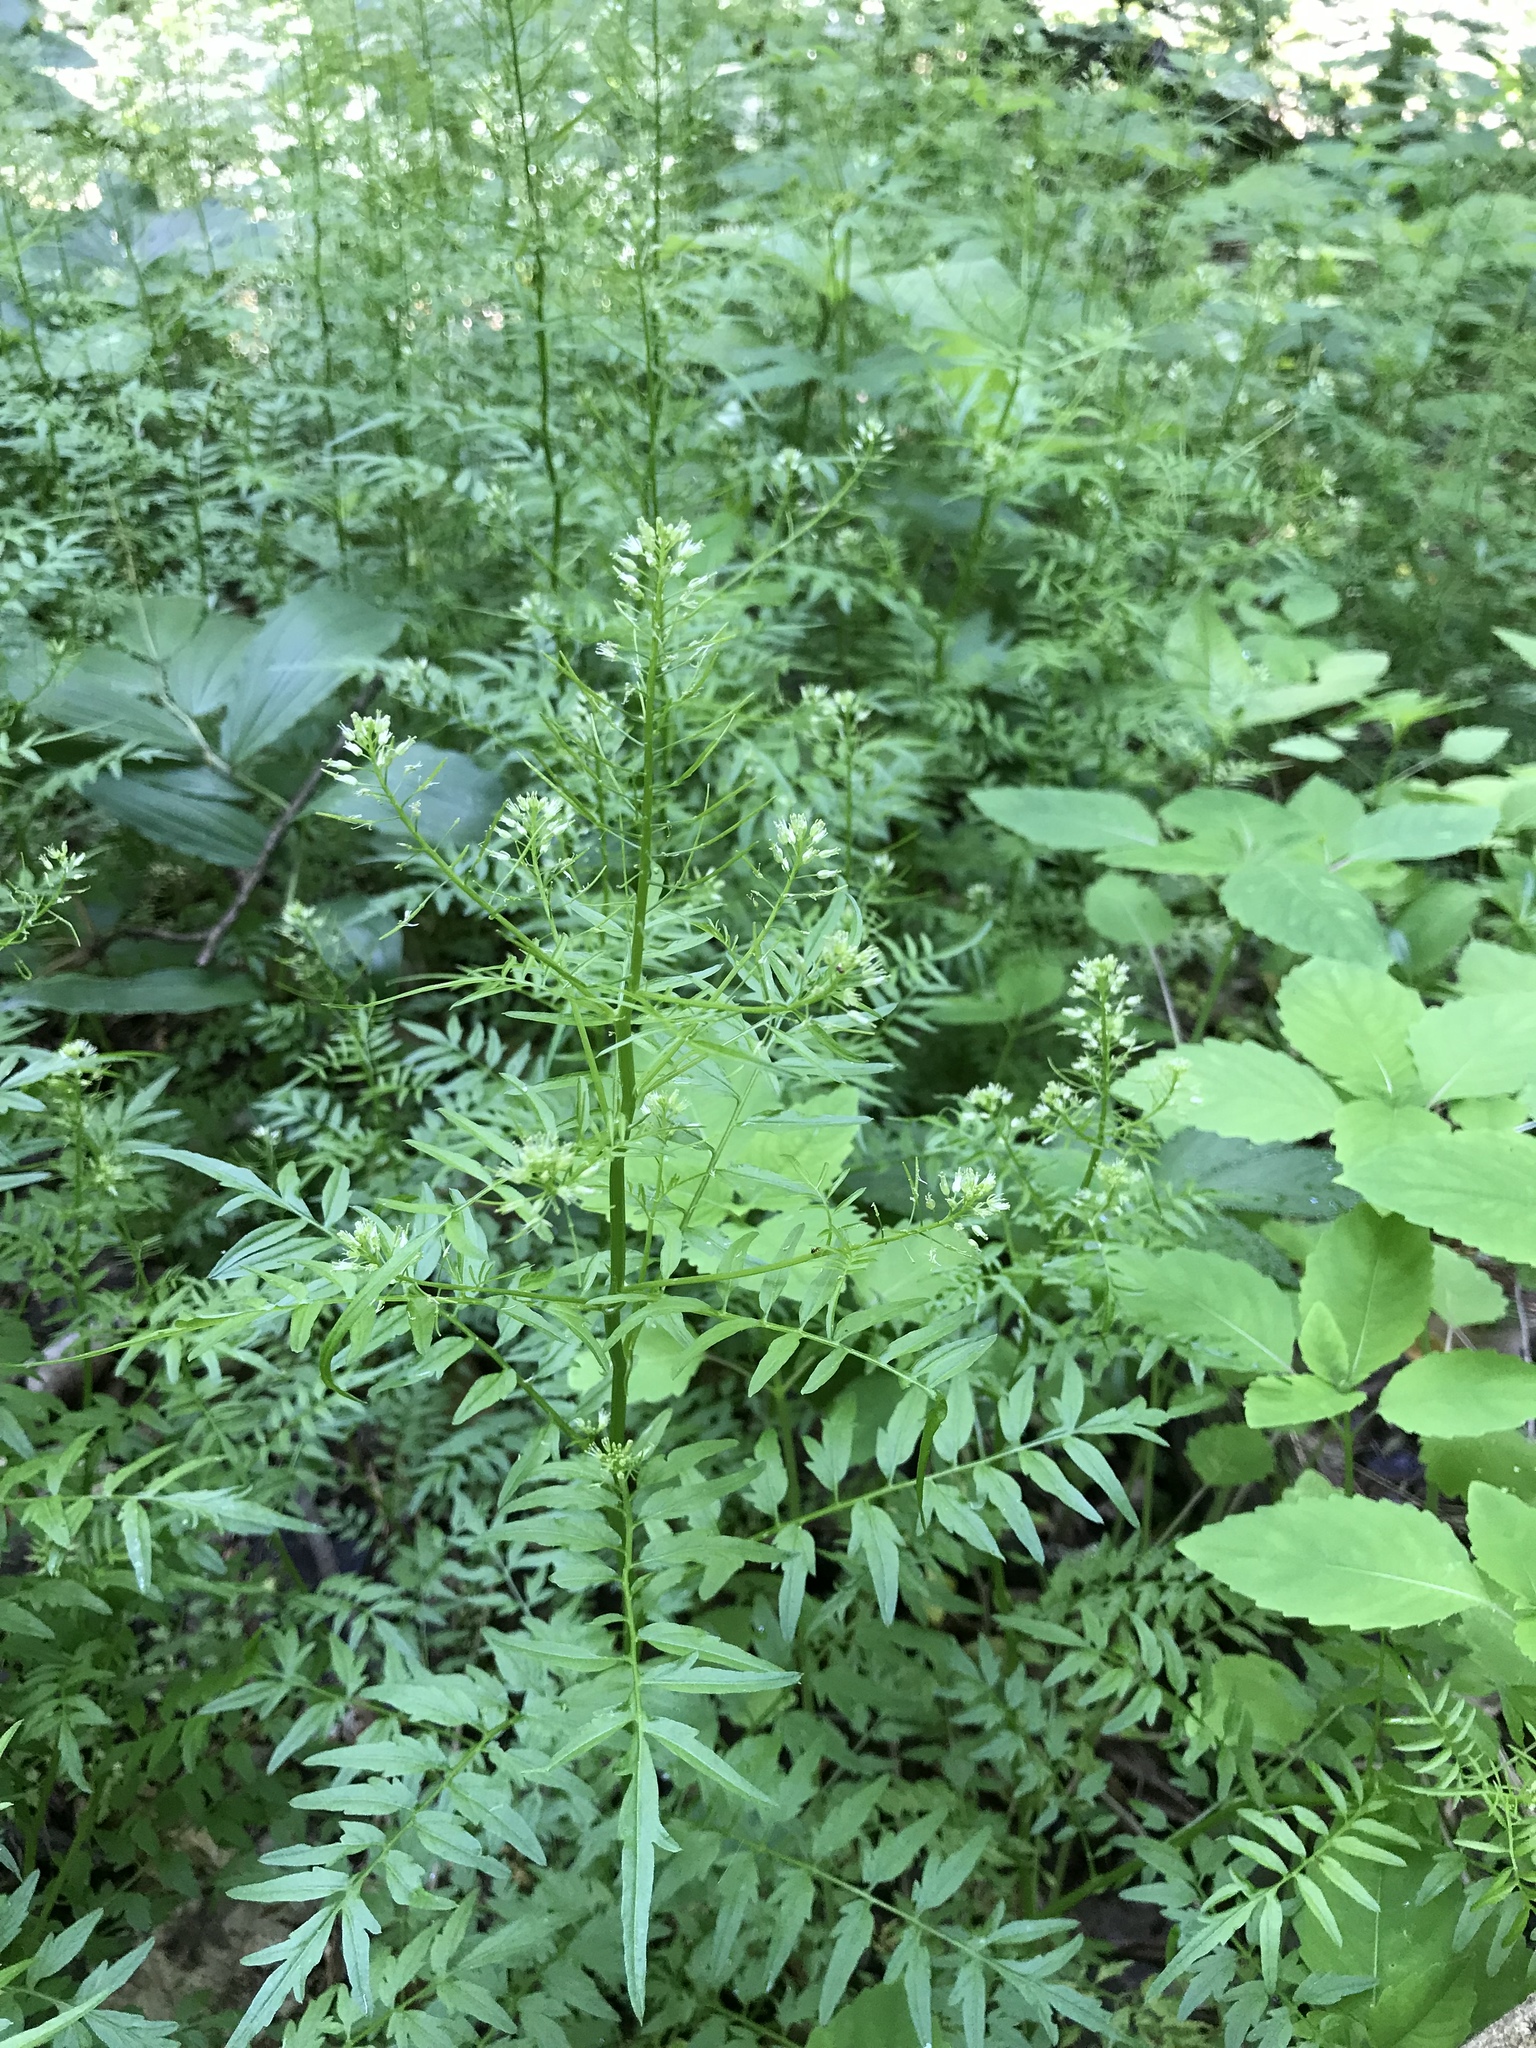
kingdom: Plantae
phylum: Tracheophyta
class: Magnoliopsida
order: Brassicales
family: Brassicaceae
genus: Cardamine
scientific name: Cardamine impatiens
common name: Narrow-leaved bitter-cress
